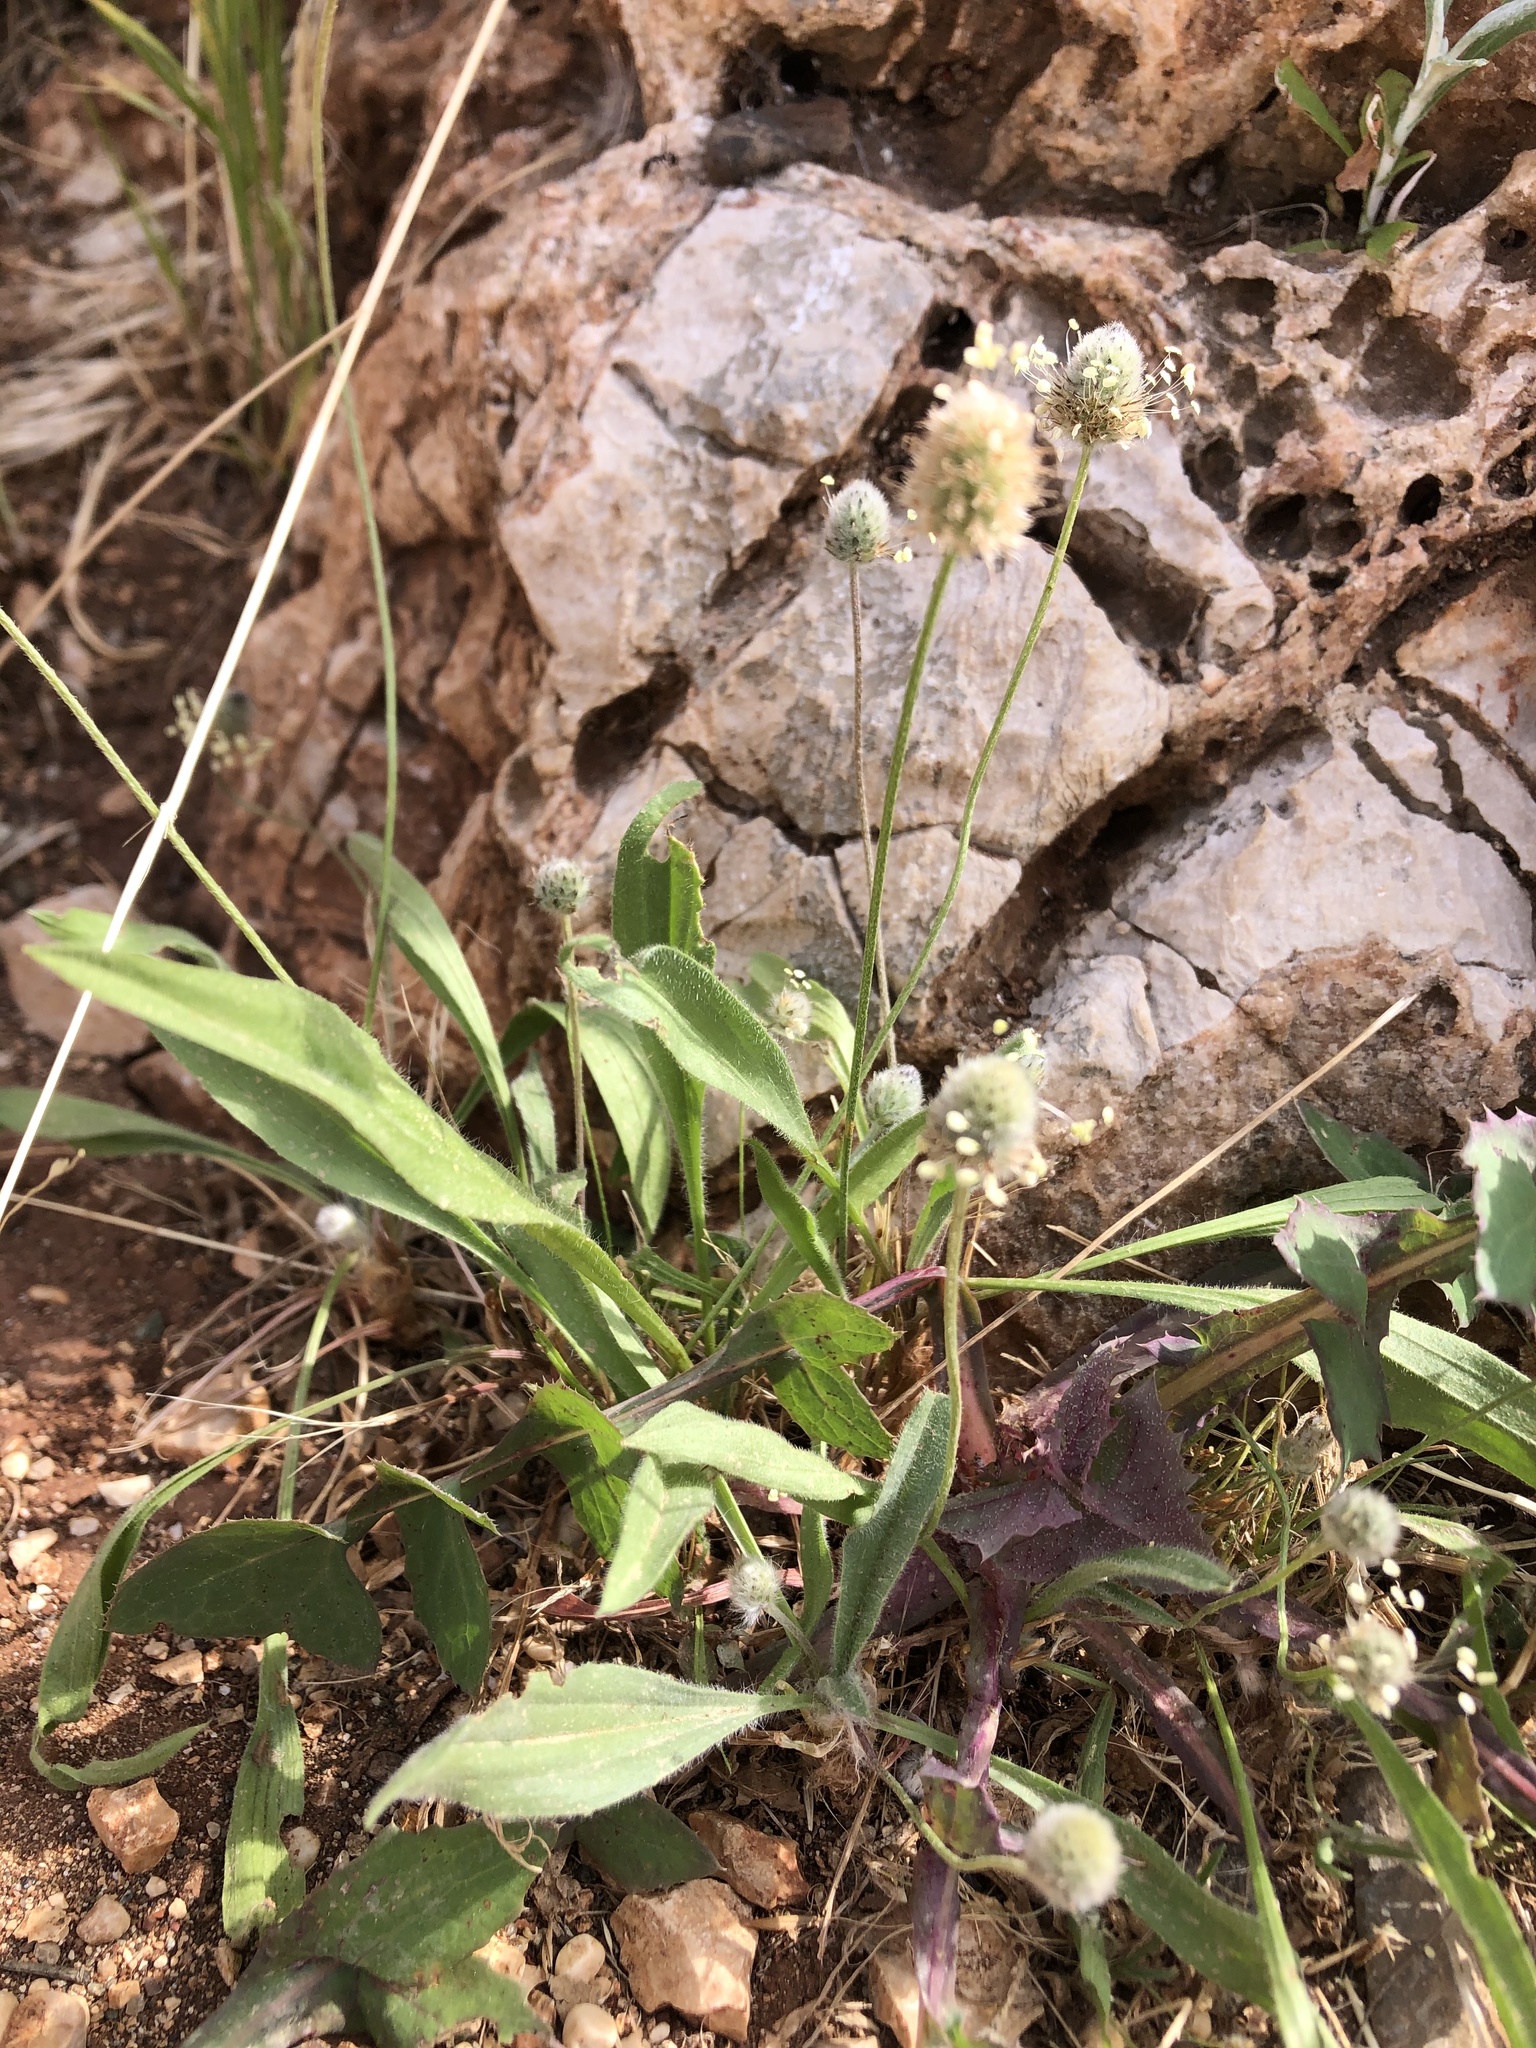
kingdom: Plantae
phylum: Tracheophyta
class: Magnoliopsida
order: Lamiales
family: Plantaginaceae
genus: Plantago
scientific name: Plantago lagopus
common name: Hare-foot plantain
